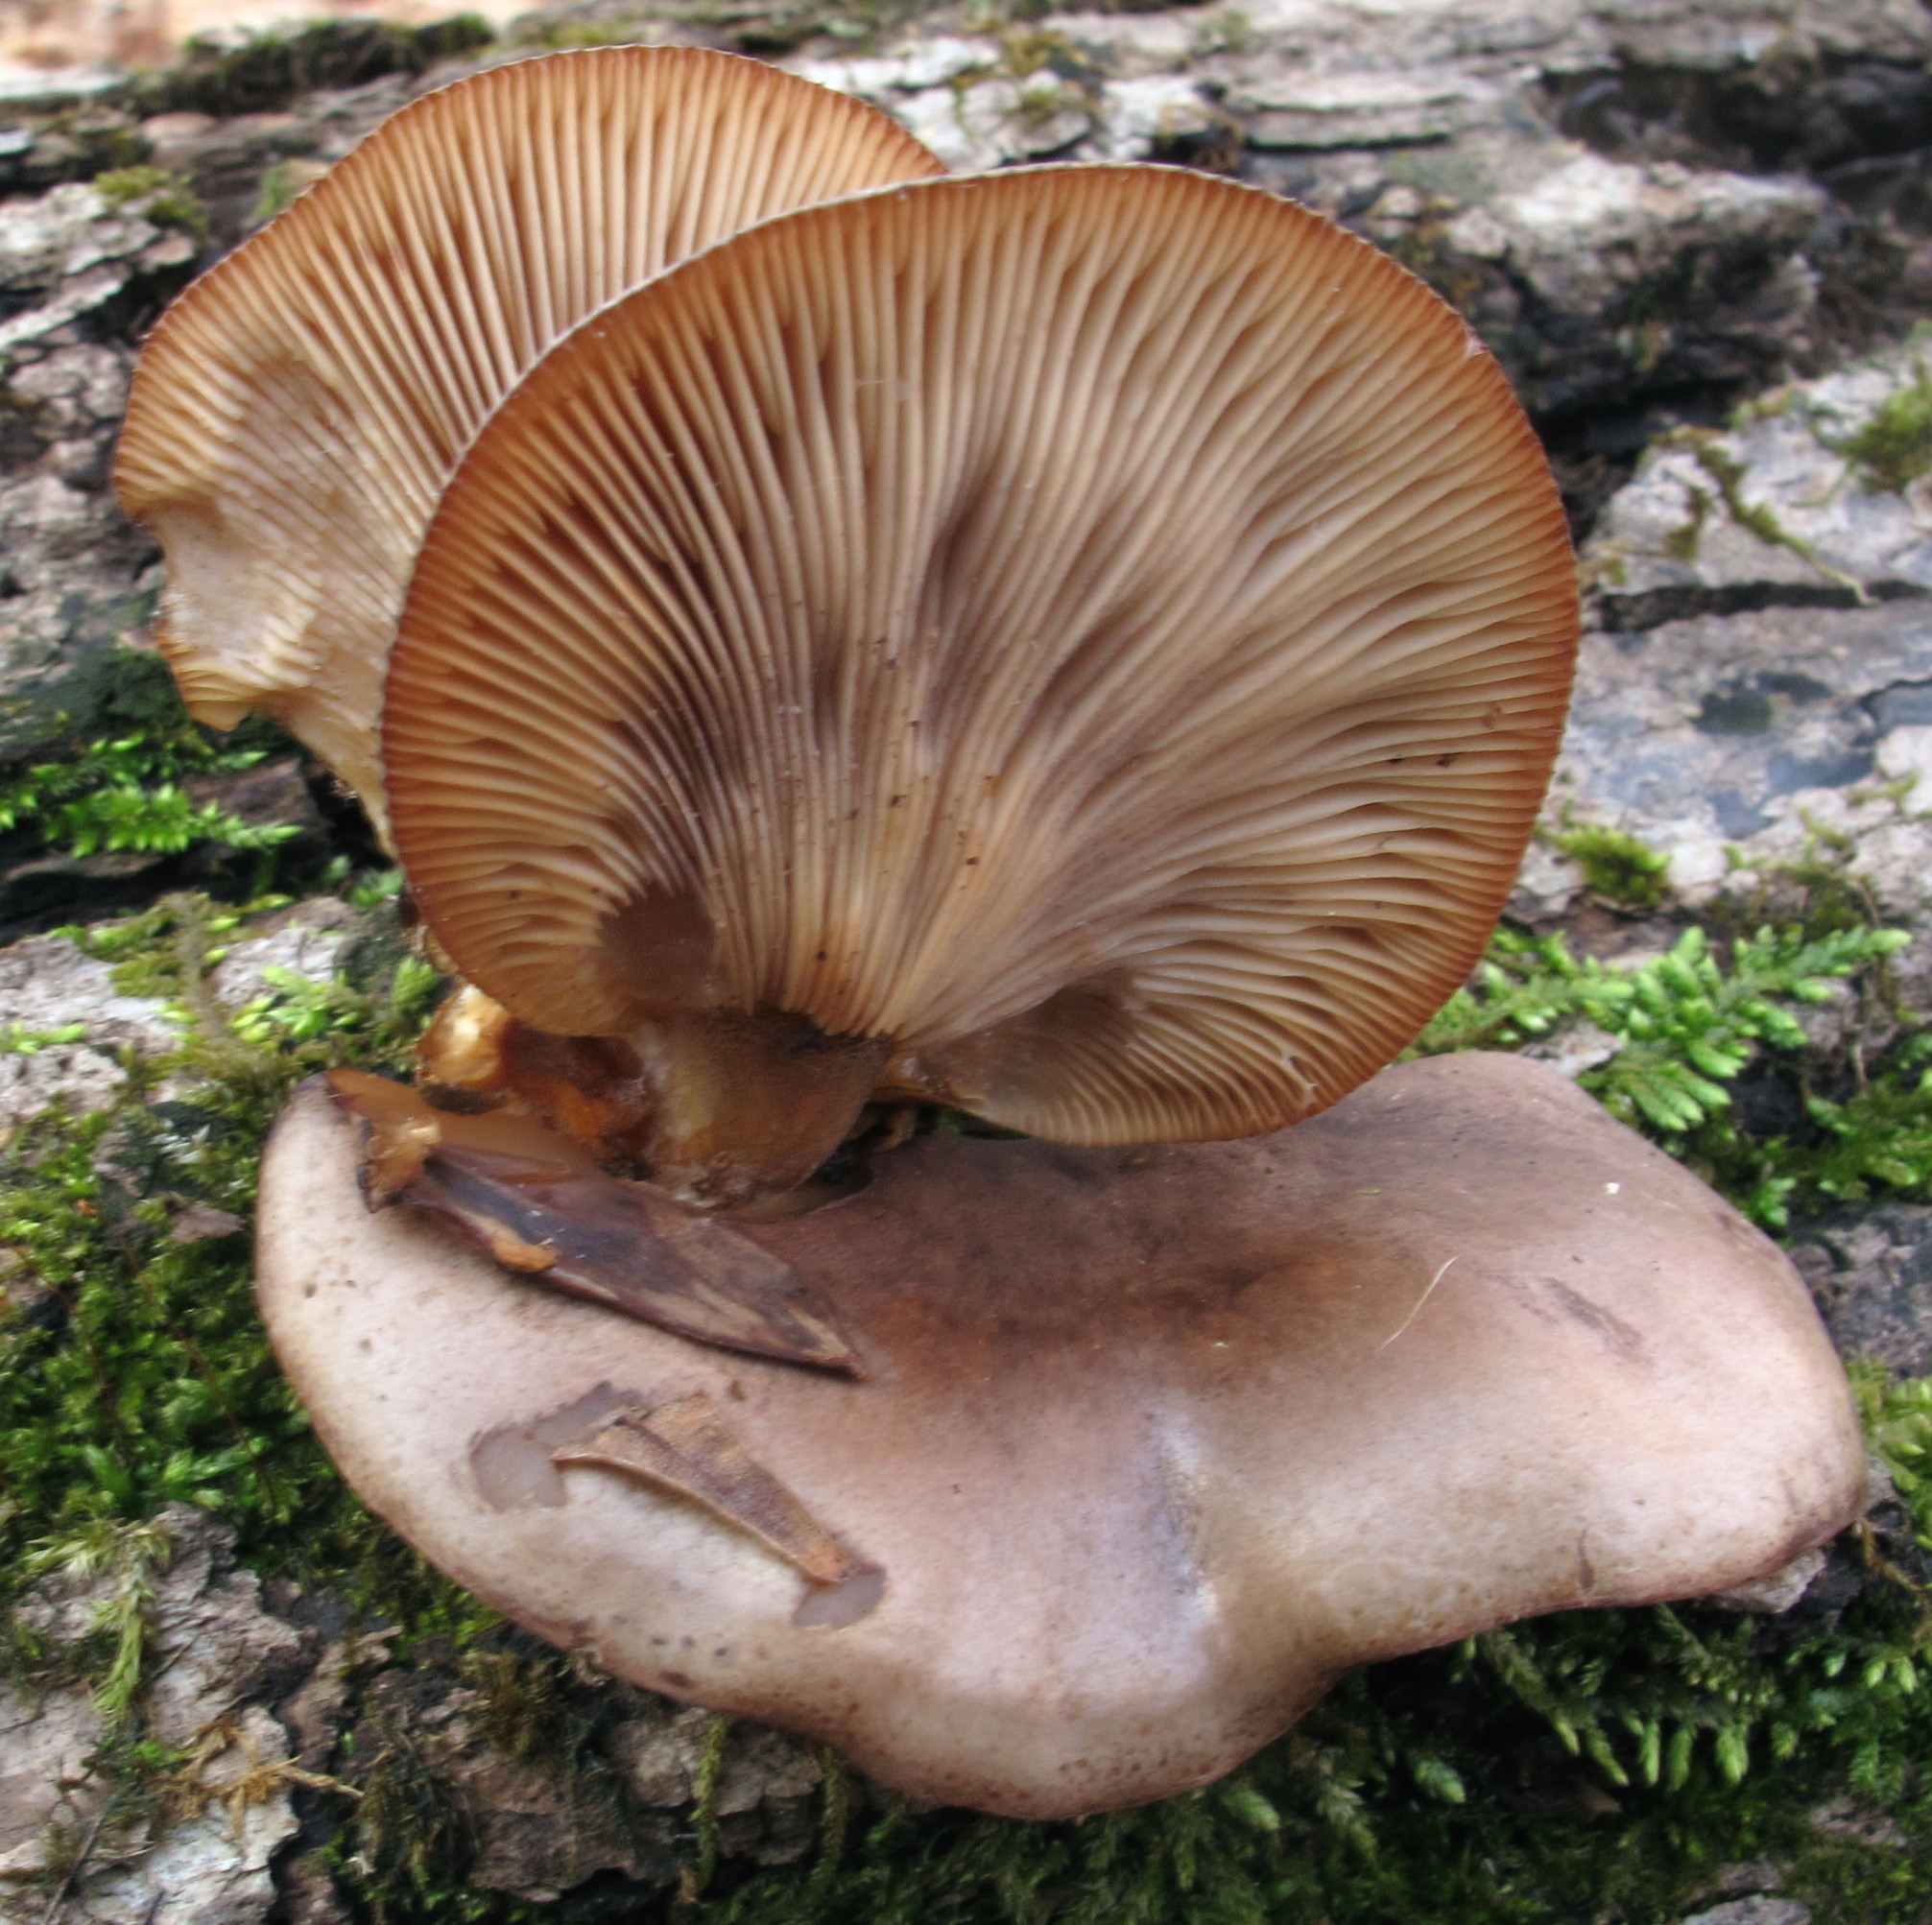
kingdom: Fungi
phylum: Basidiomycota
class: Agaricomycetes
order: Agaricales
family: Sarcomyxaceae
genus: Sarcomyxa
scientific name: Sarcomyxa serotina
